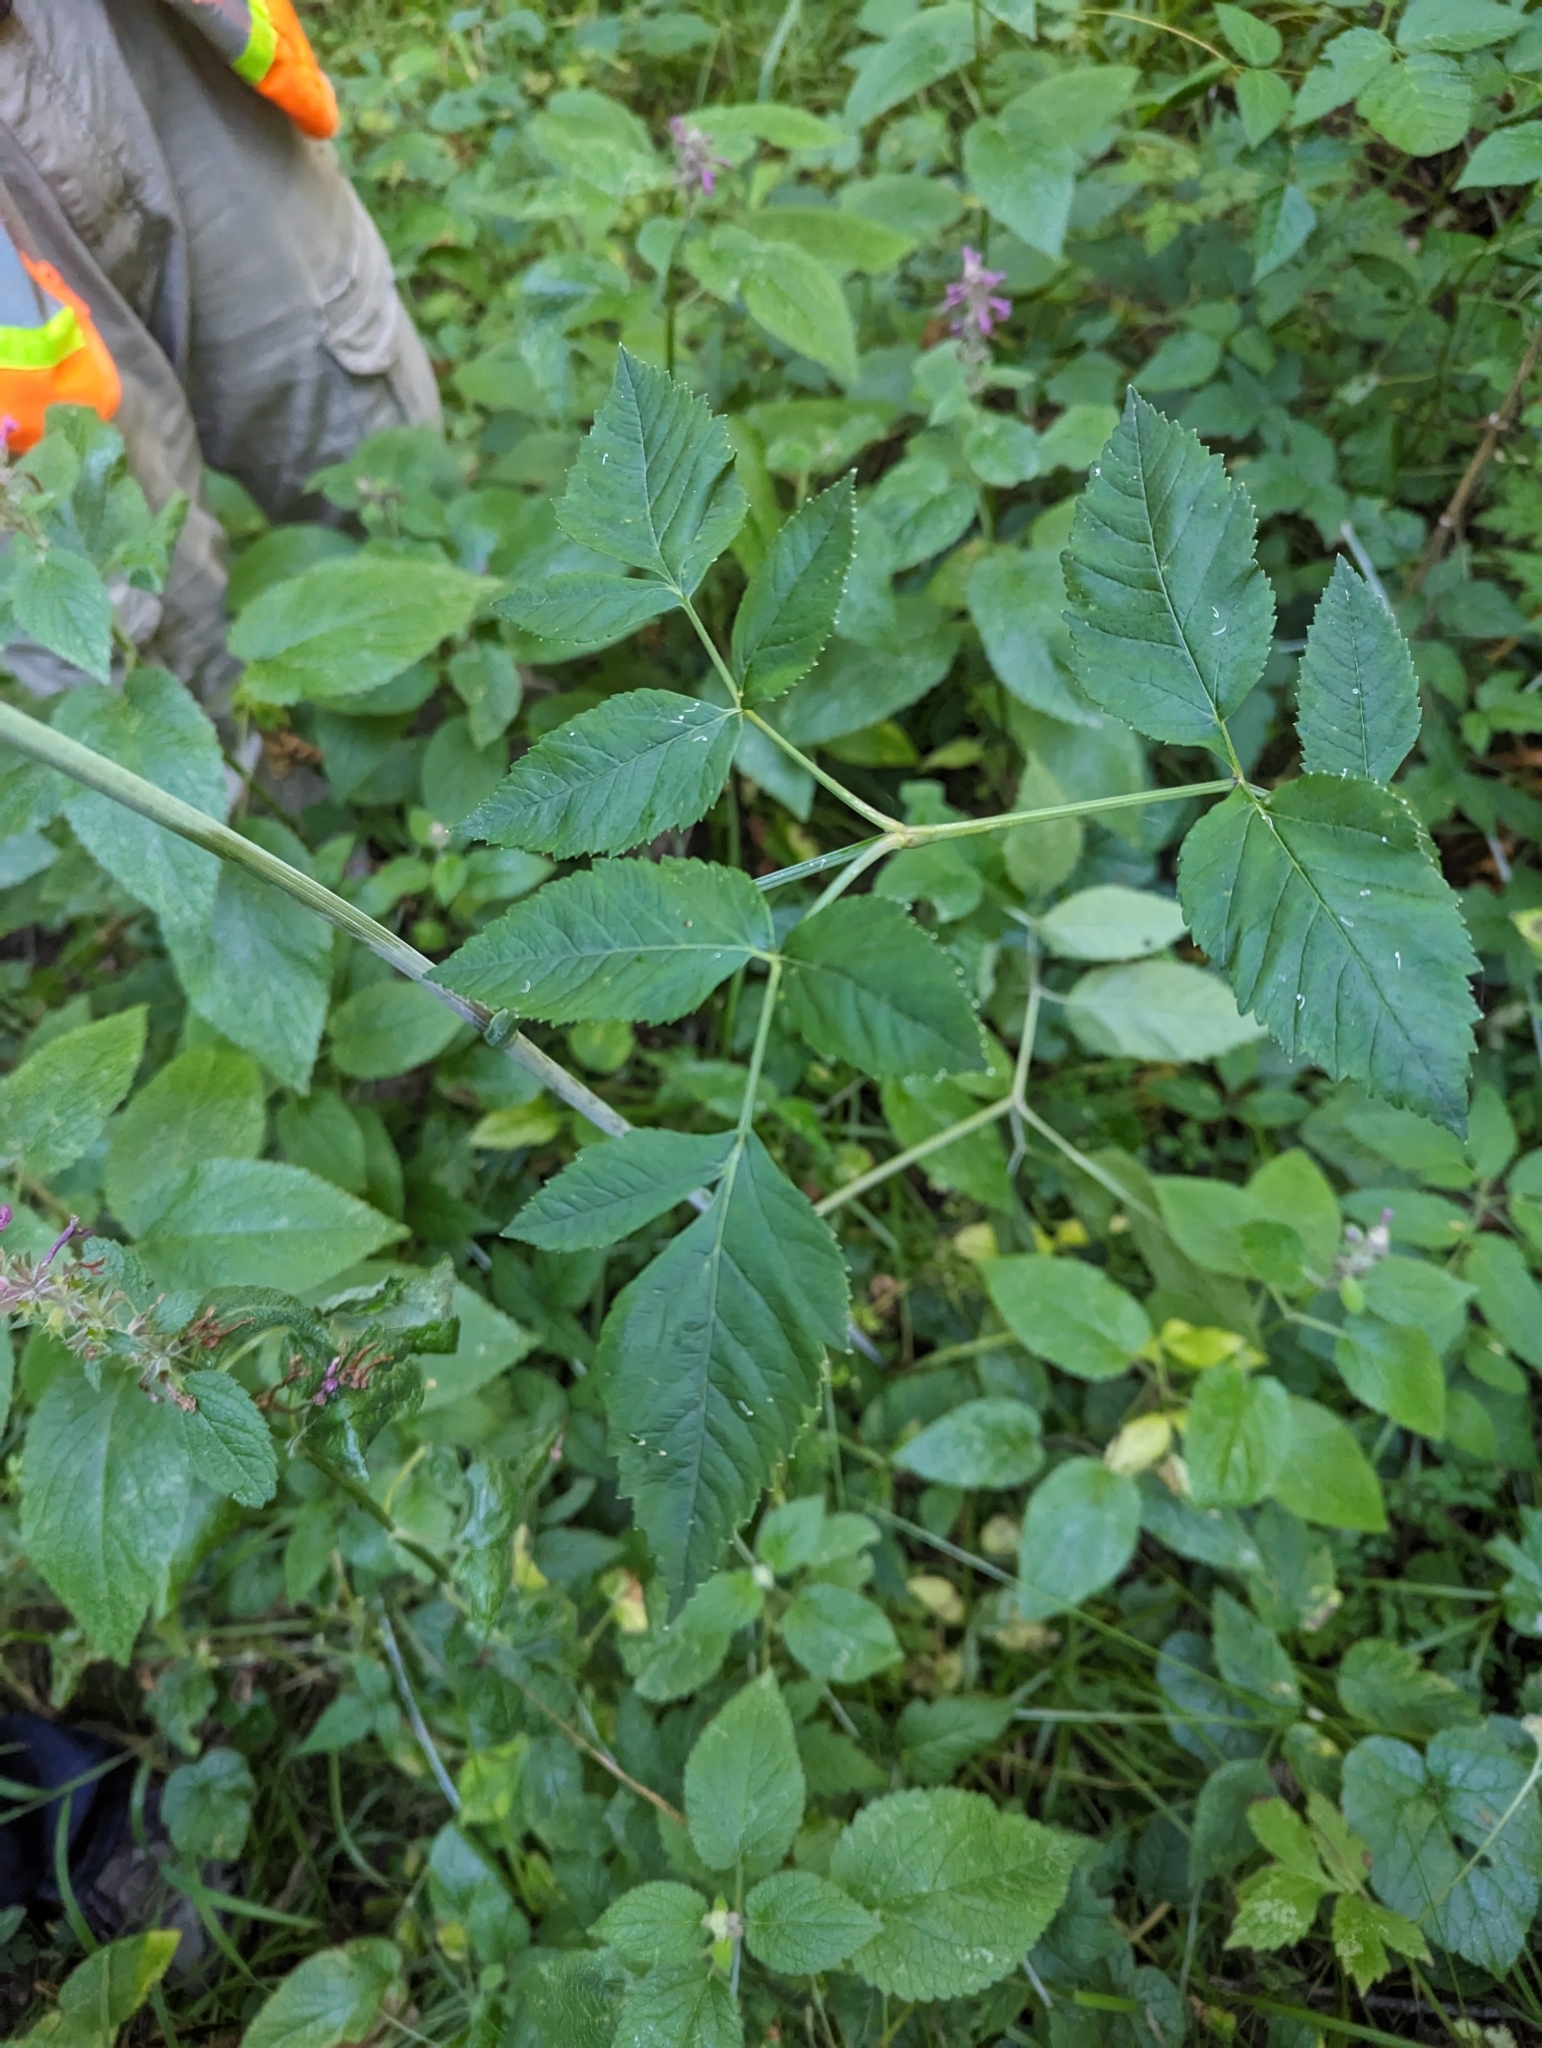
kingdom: Plantae
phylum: Tracheophyta
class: Magnoliopsida
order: Apiales
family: Apiaceae
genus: Angelica
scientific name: Angelica genuflexa
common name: Kneeling angelica
